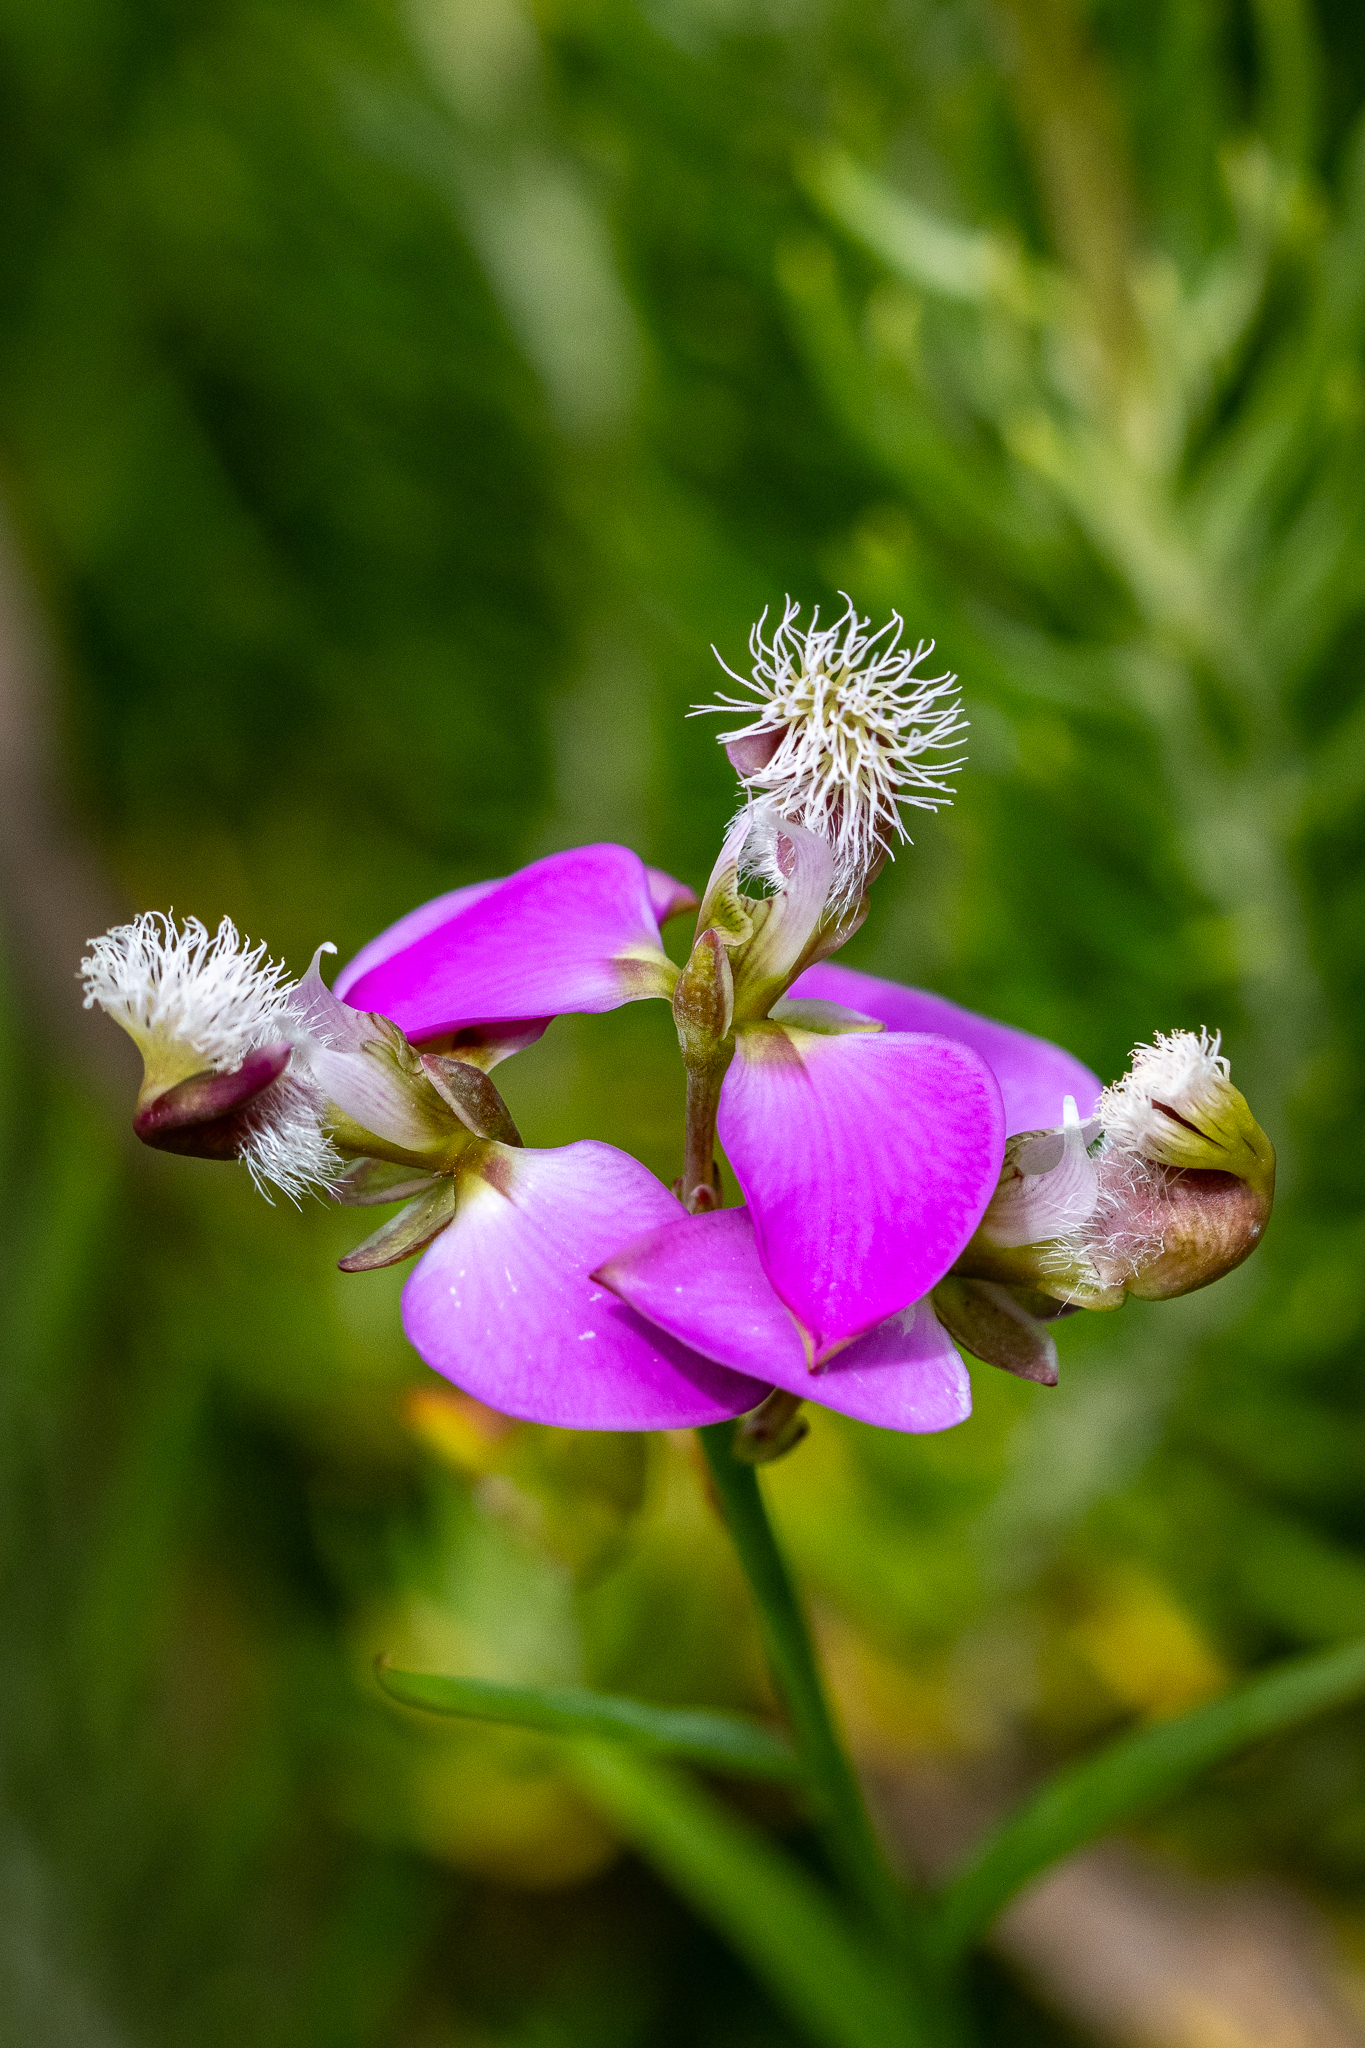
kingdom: Plantae
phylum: Tracheophyta
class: Magnoliopsida
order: Fabales
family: Polygalaceae
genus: Polygala
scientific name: Polygala bracteolata
